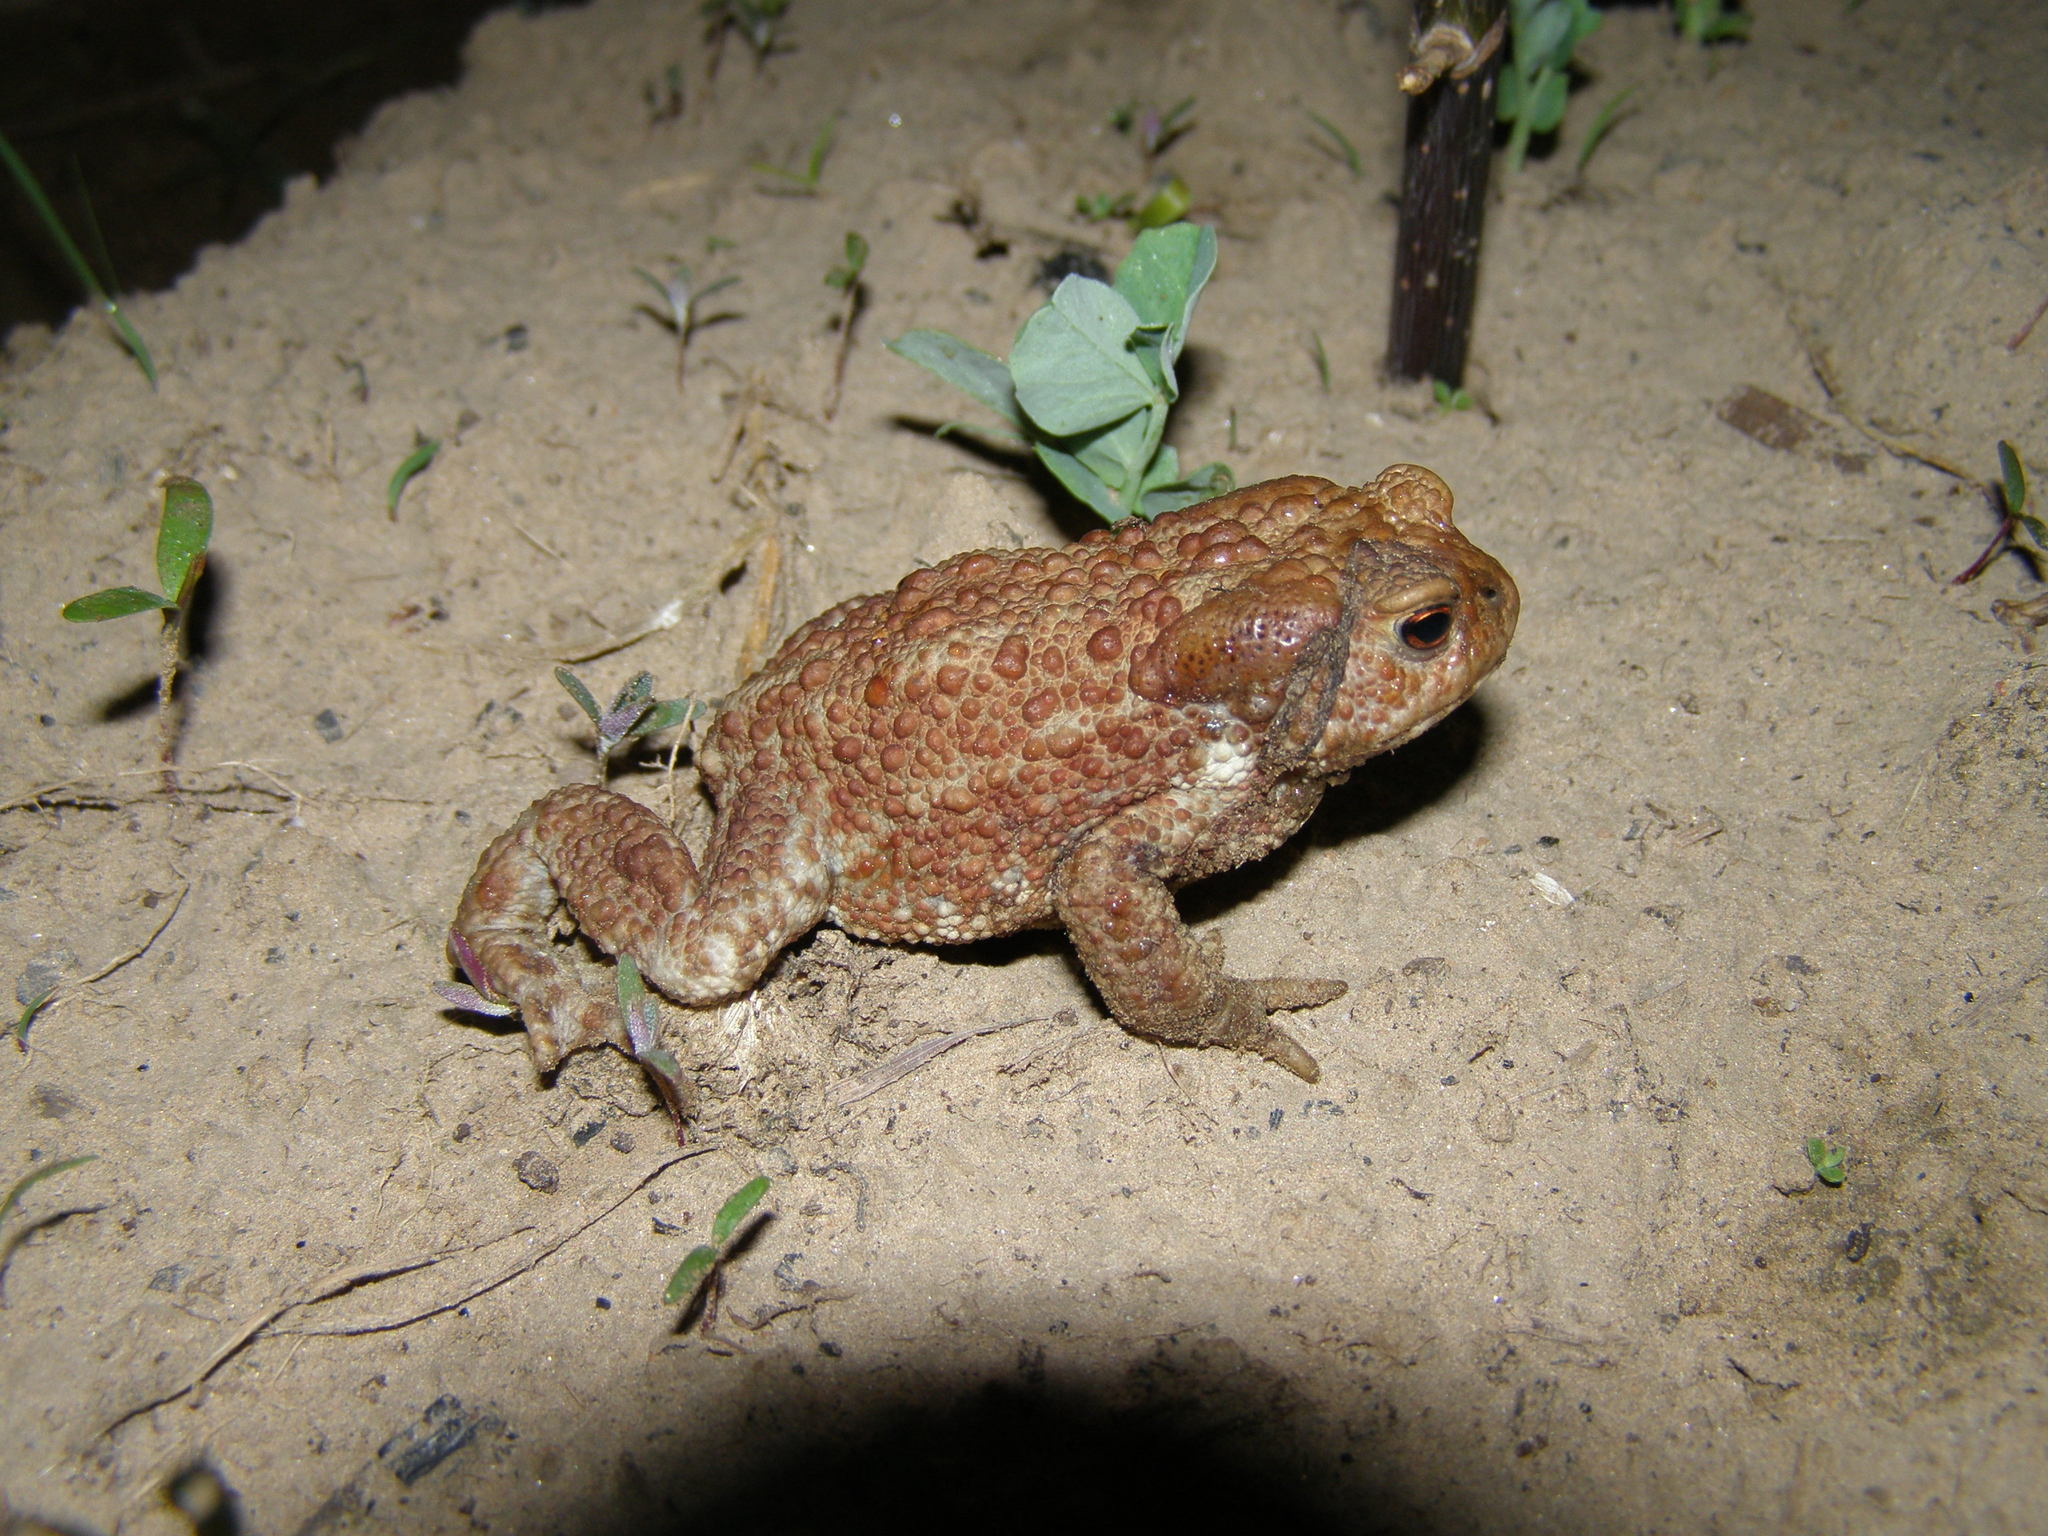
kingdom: Animalia
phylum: Chordata
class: Amphibia
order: Anura
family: Bufonidae
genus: Bufo
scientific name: Bufo bufo
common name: Common toad
